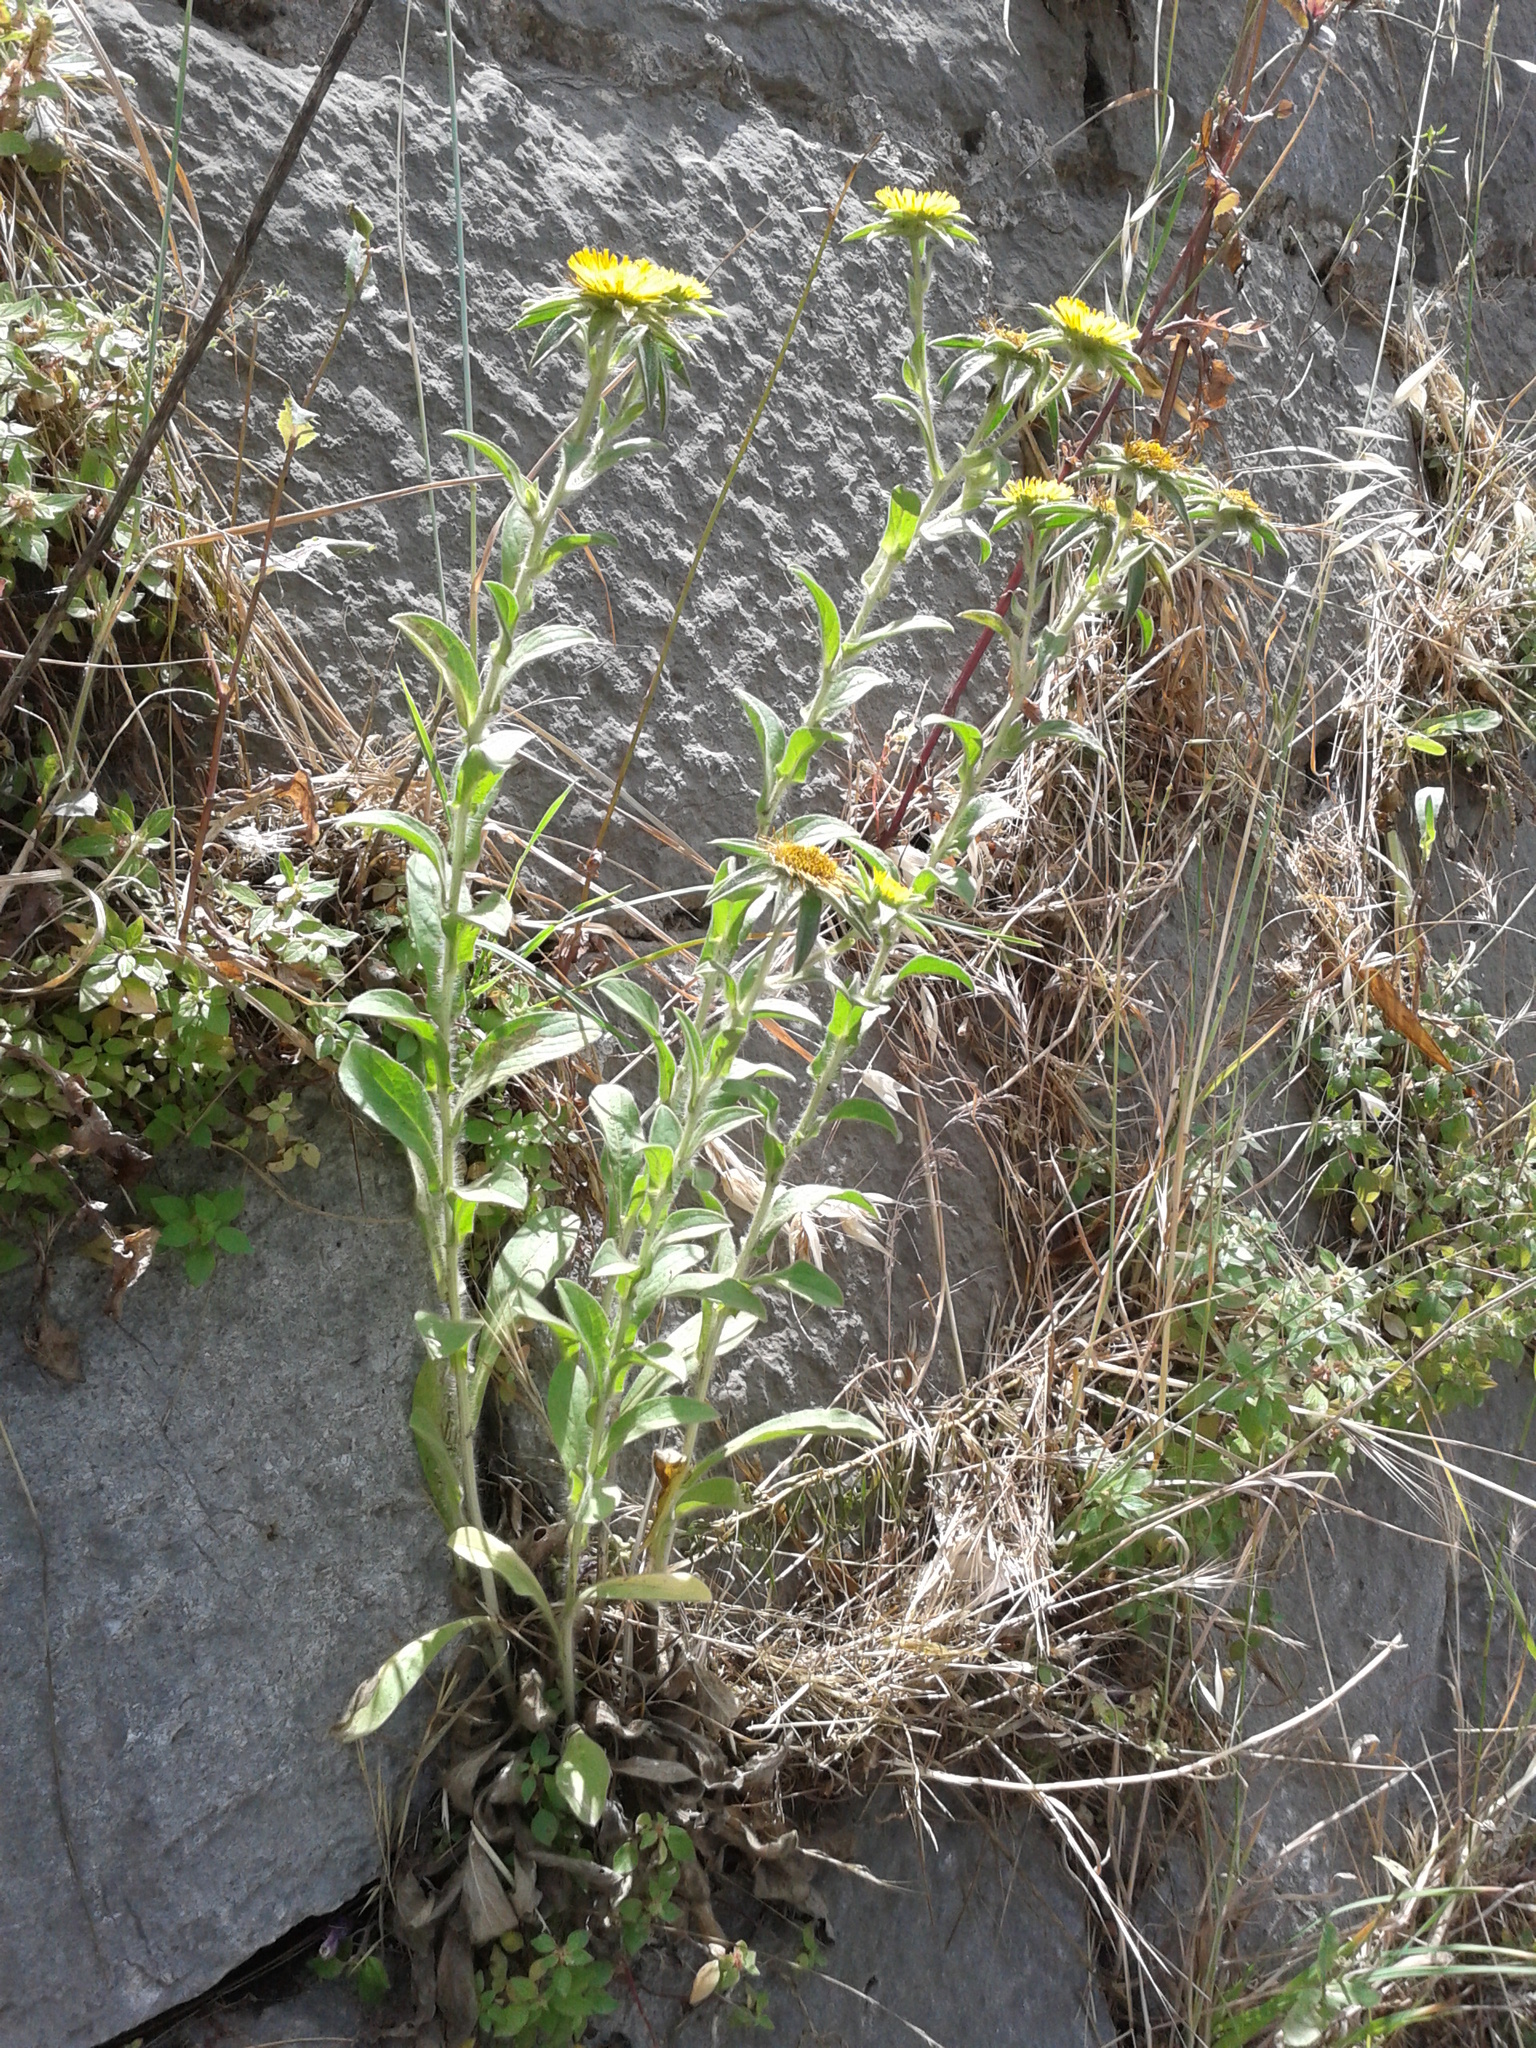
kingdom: Plantae
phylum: Tracheophyta
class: Magnoliopsida
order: Asterales
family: Asteraceae
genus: Pallenis
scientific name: Pallenis spinosa
